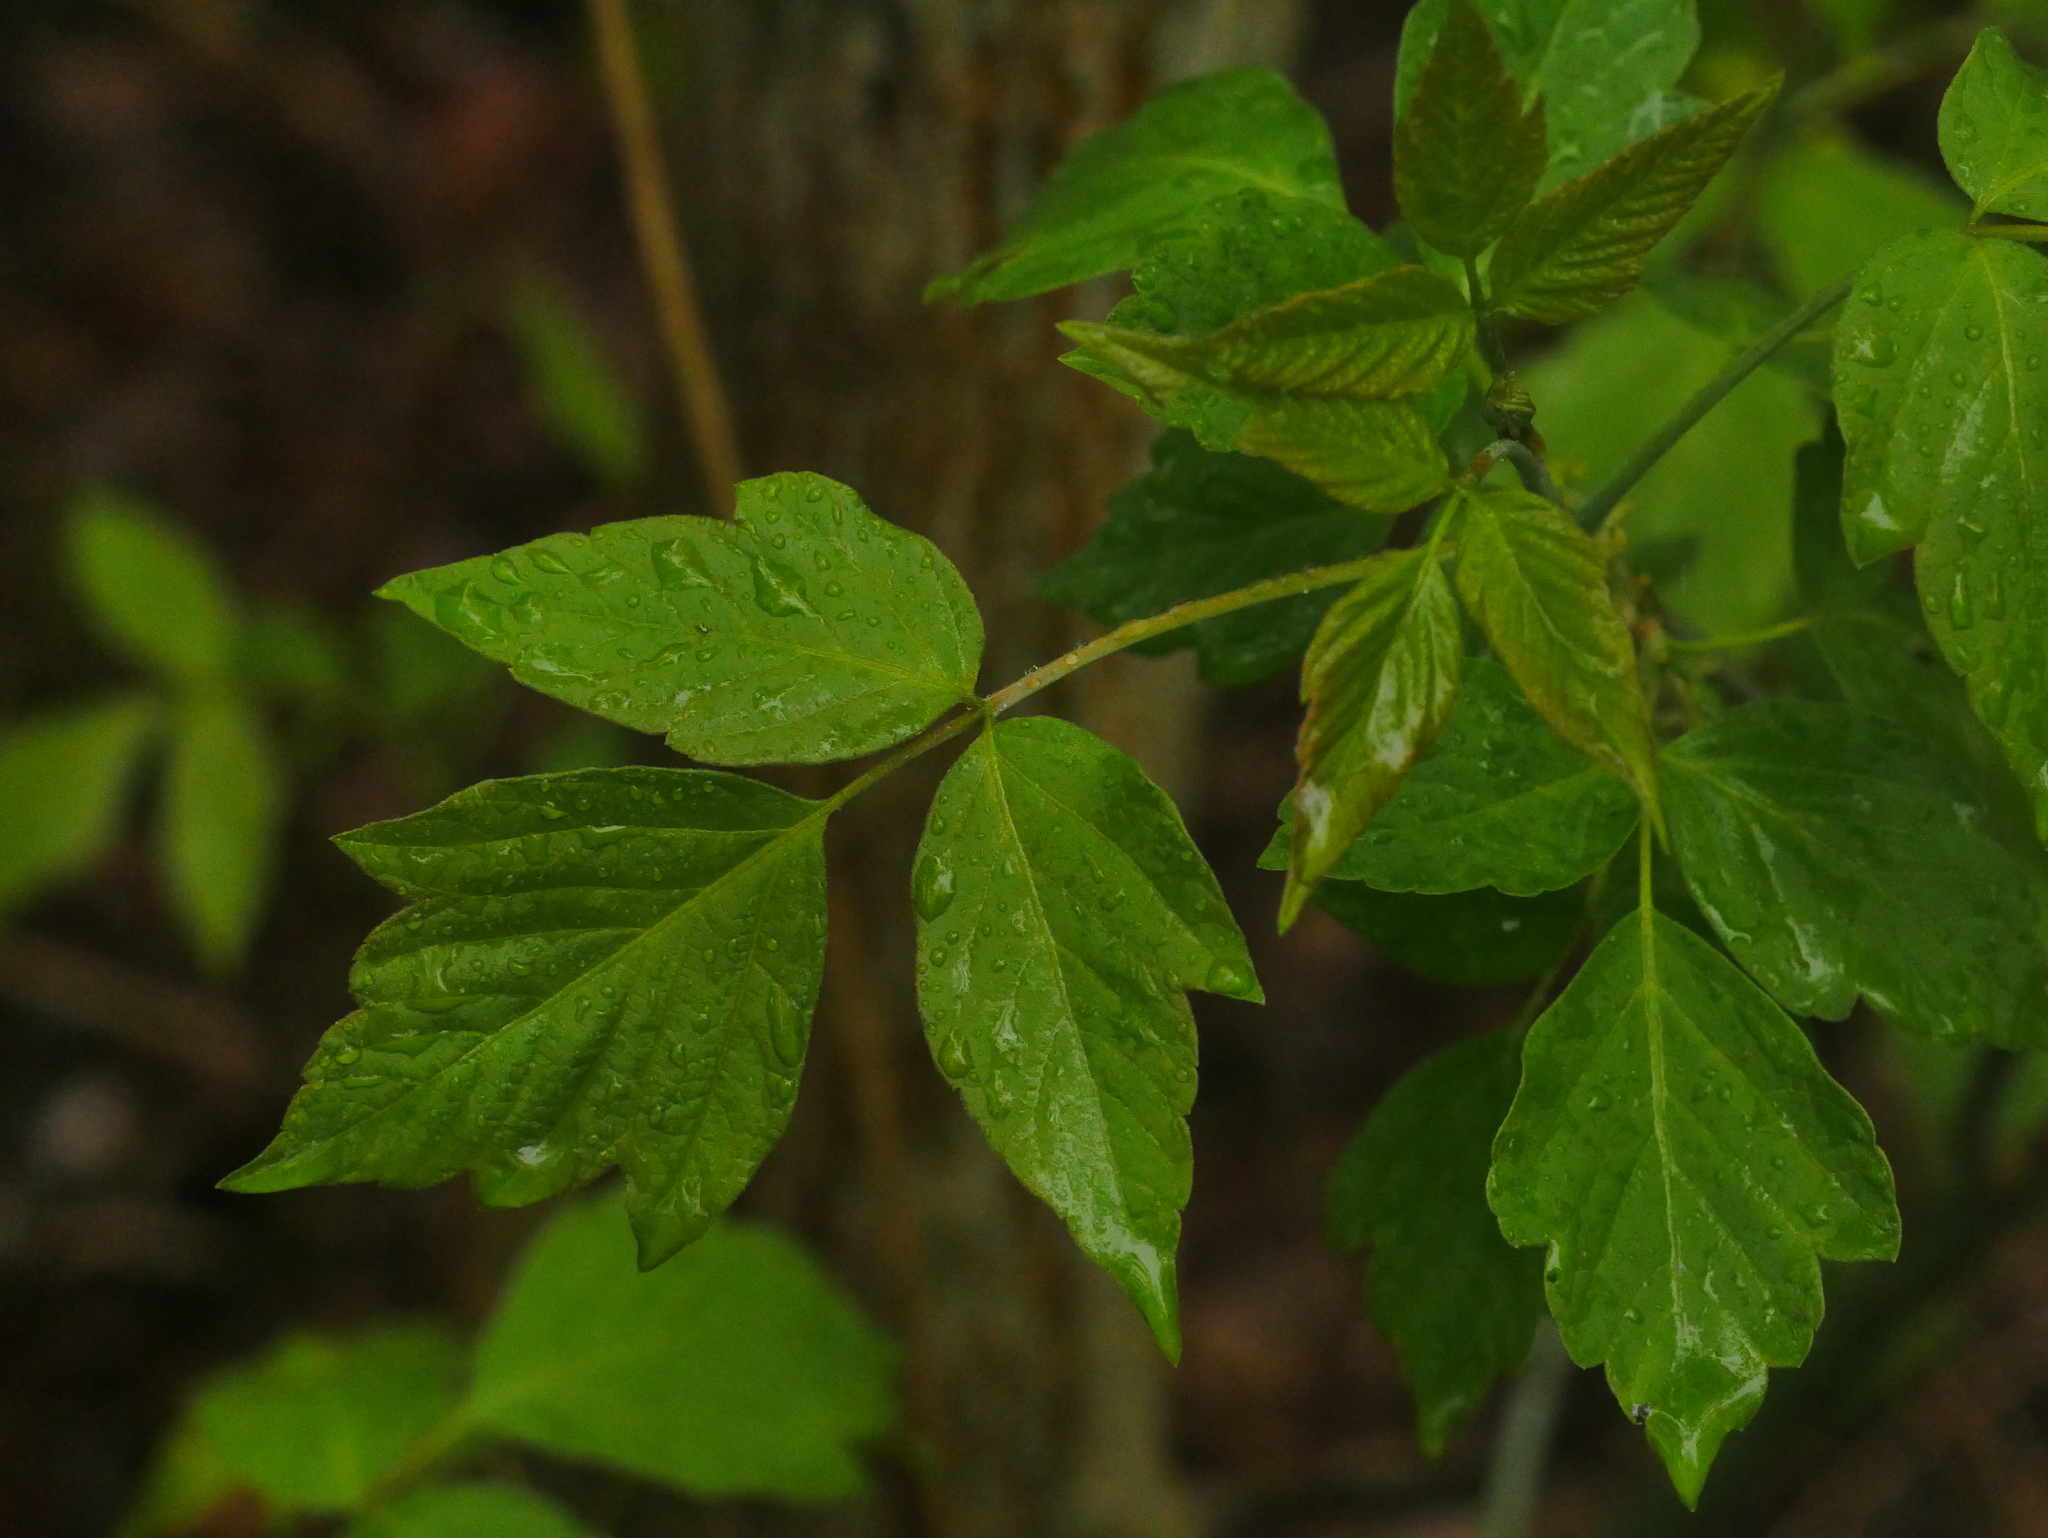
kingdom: Plantae
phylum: Tracheophyta
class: Magnoliopsida
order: Sapindales
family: Sapindaceae
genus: Acer
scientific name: Acer negundo
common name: Ashleaf maple
